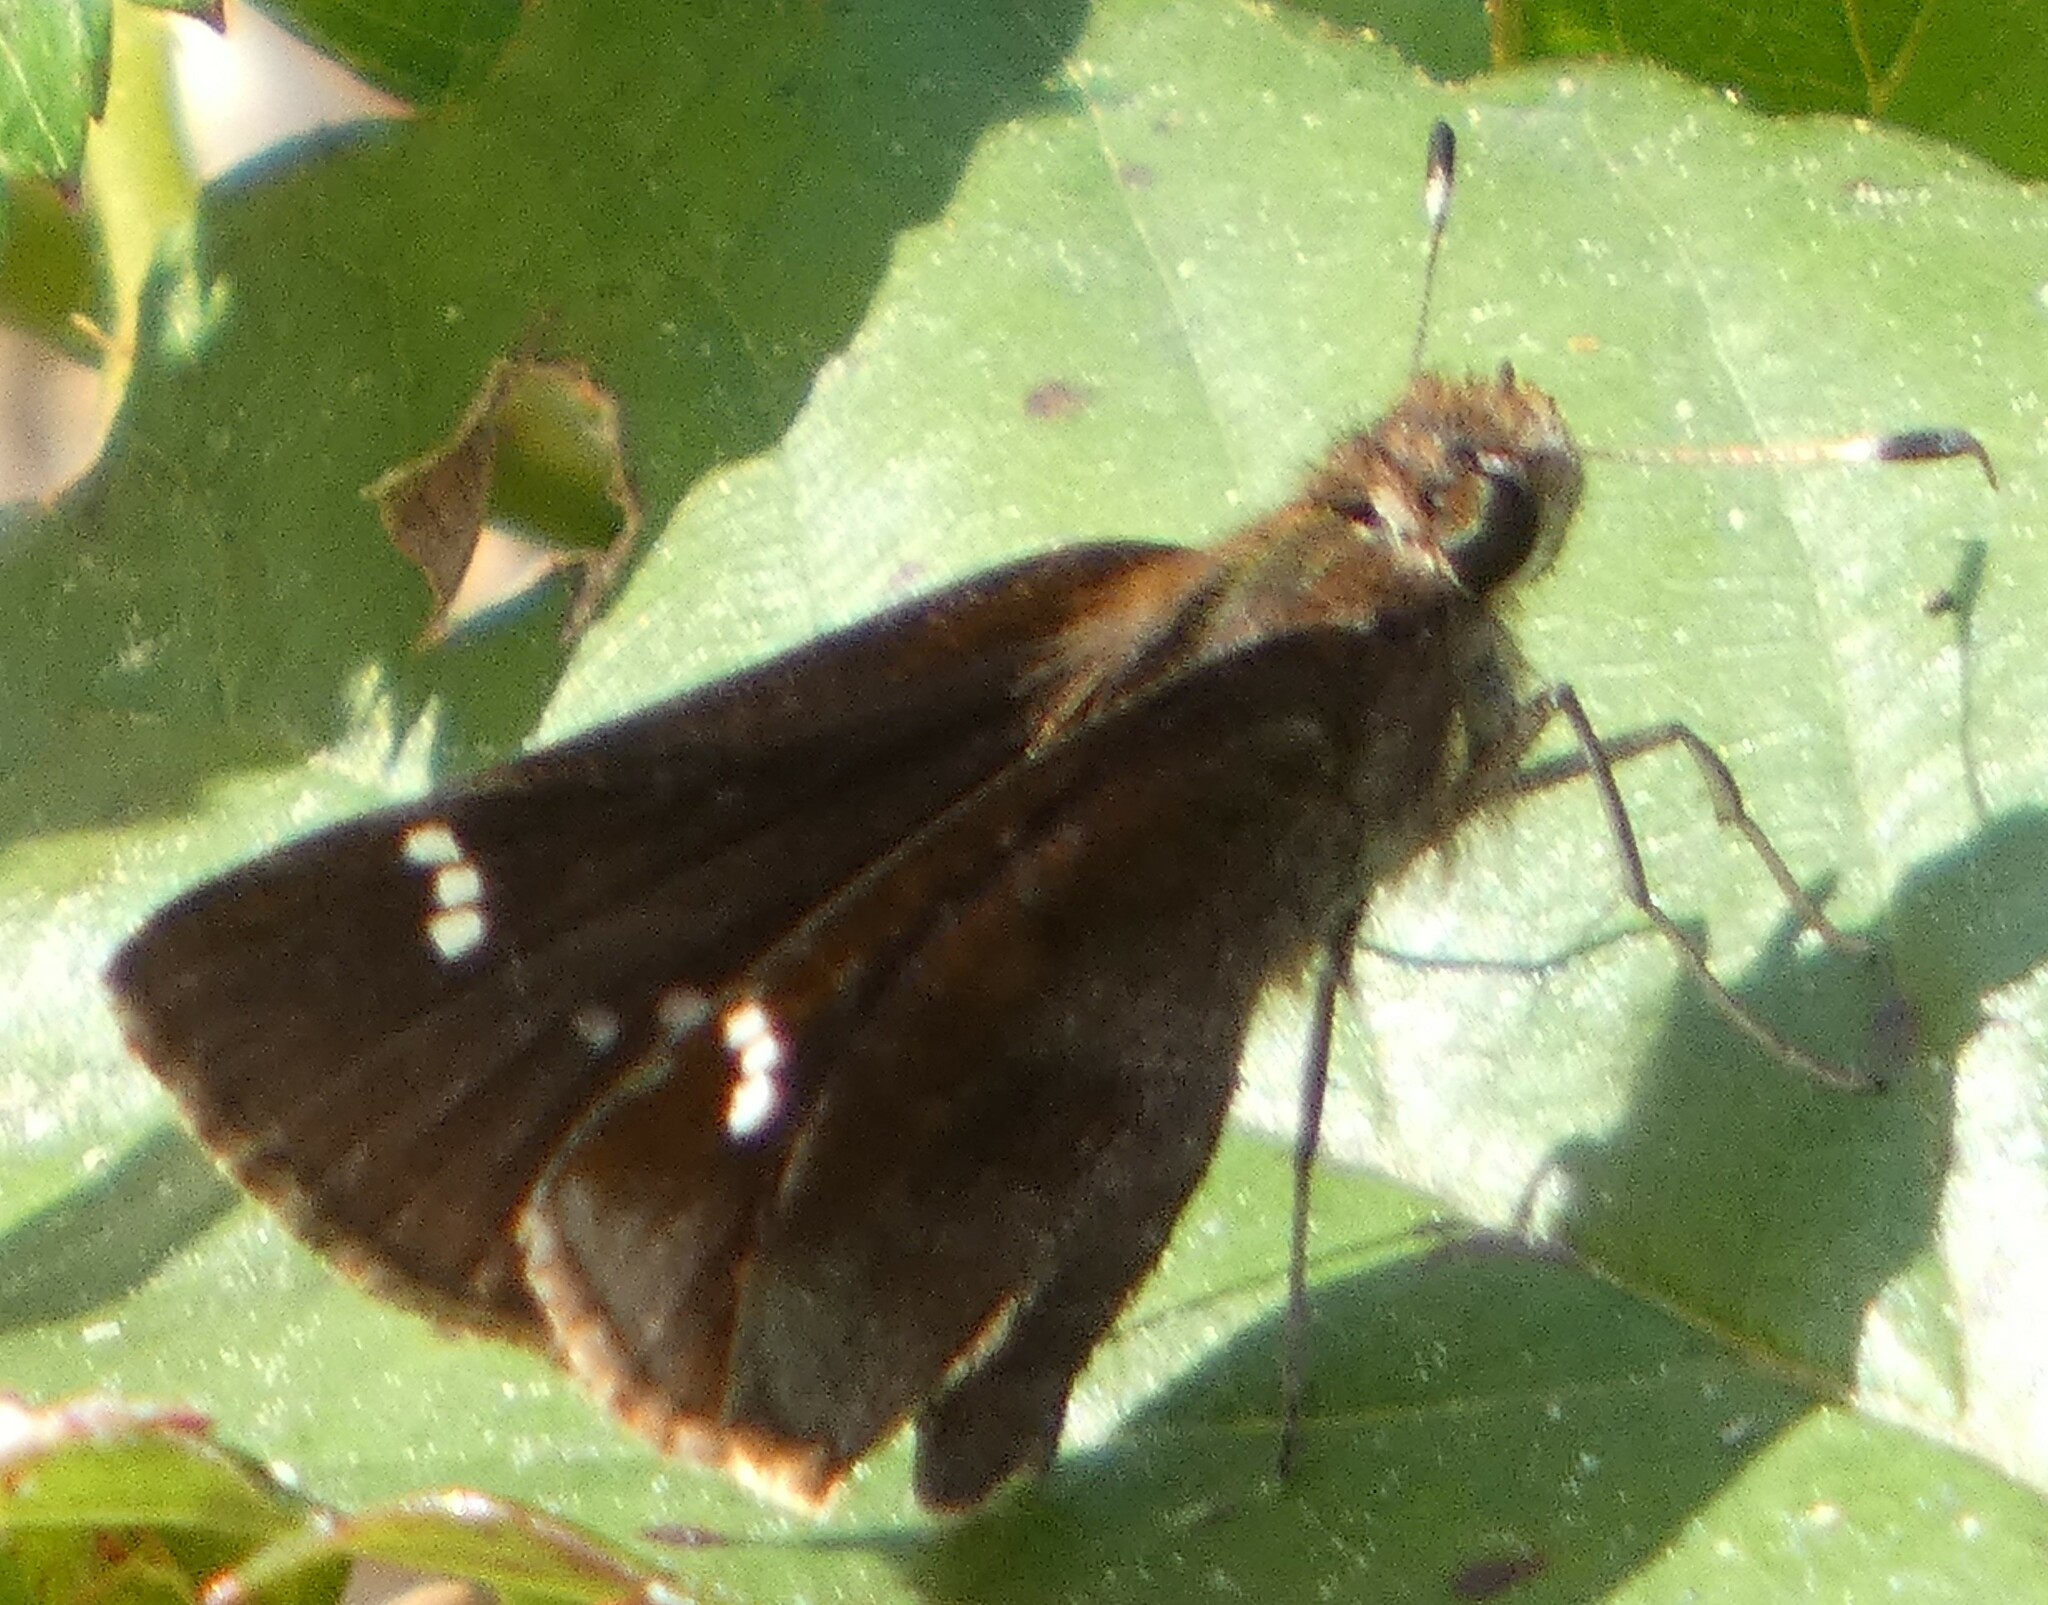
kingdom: Animalia
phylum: Arthropoda
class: Insecta
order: Lepidoptera
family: Hesperiidae
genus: Lerema
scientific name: Lerema accius
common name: Clouded skipper
